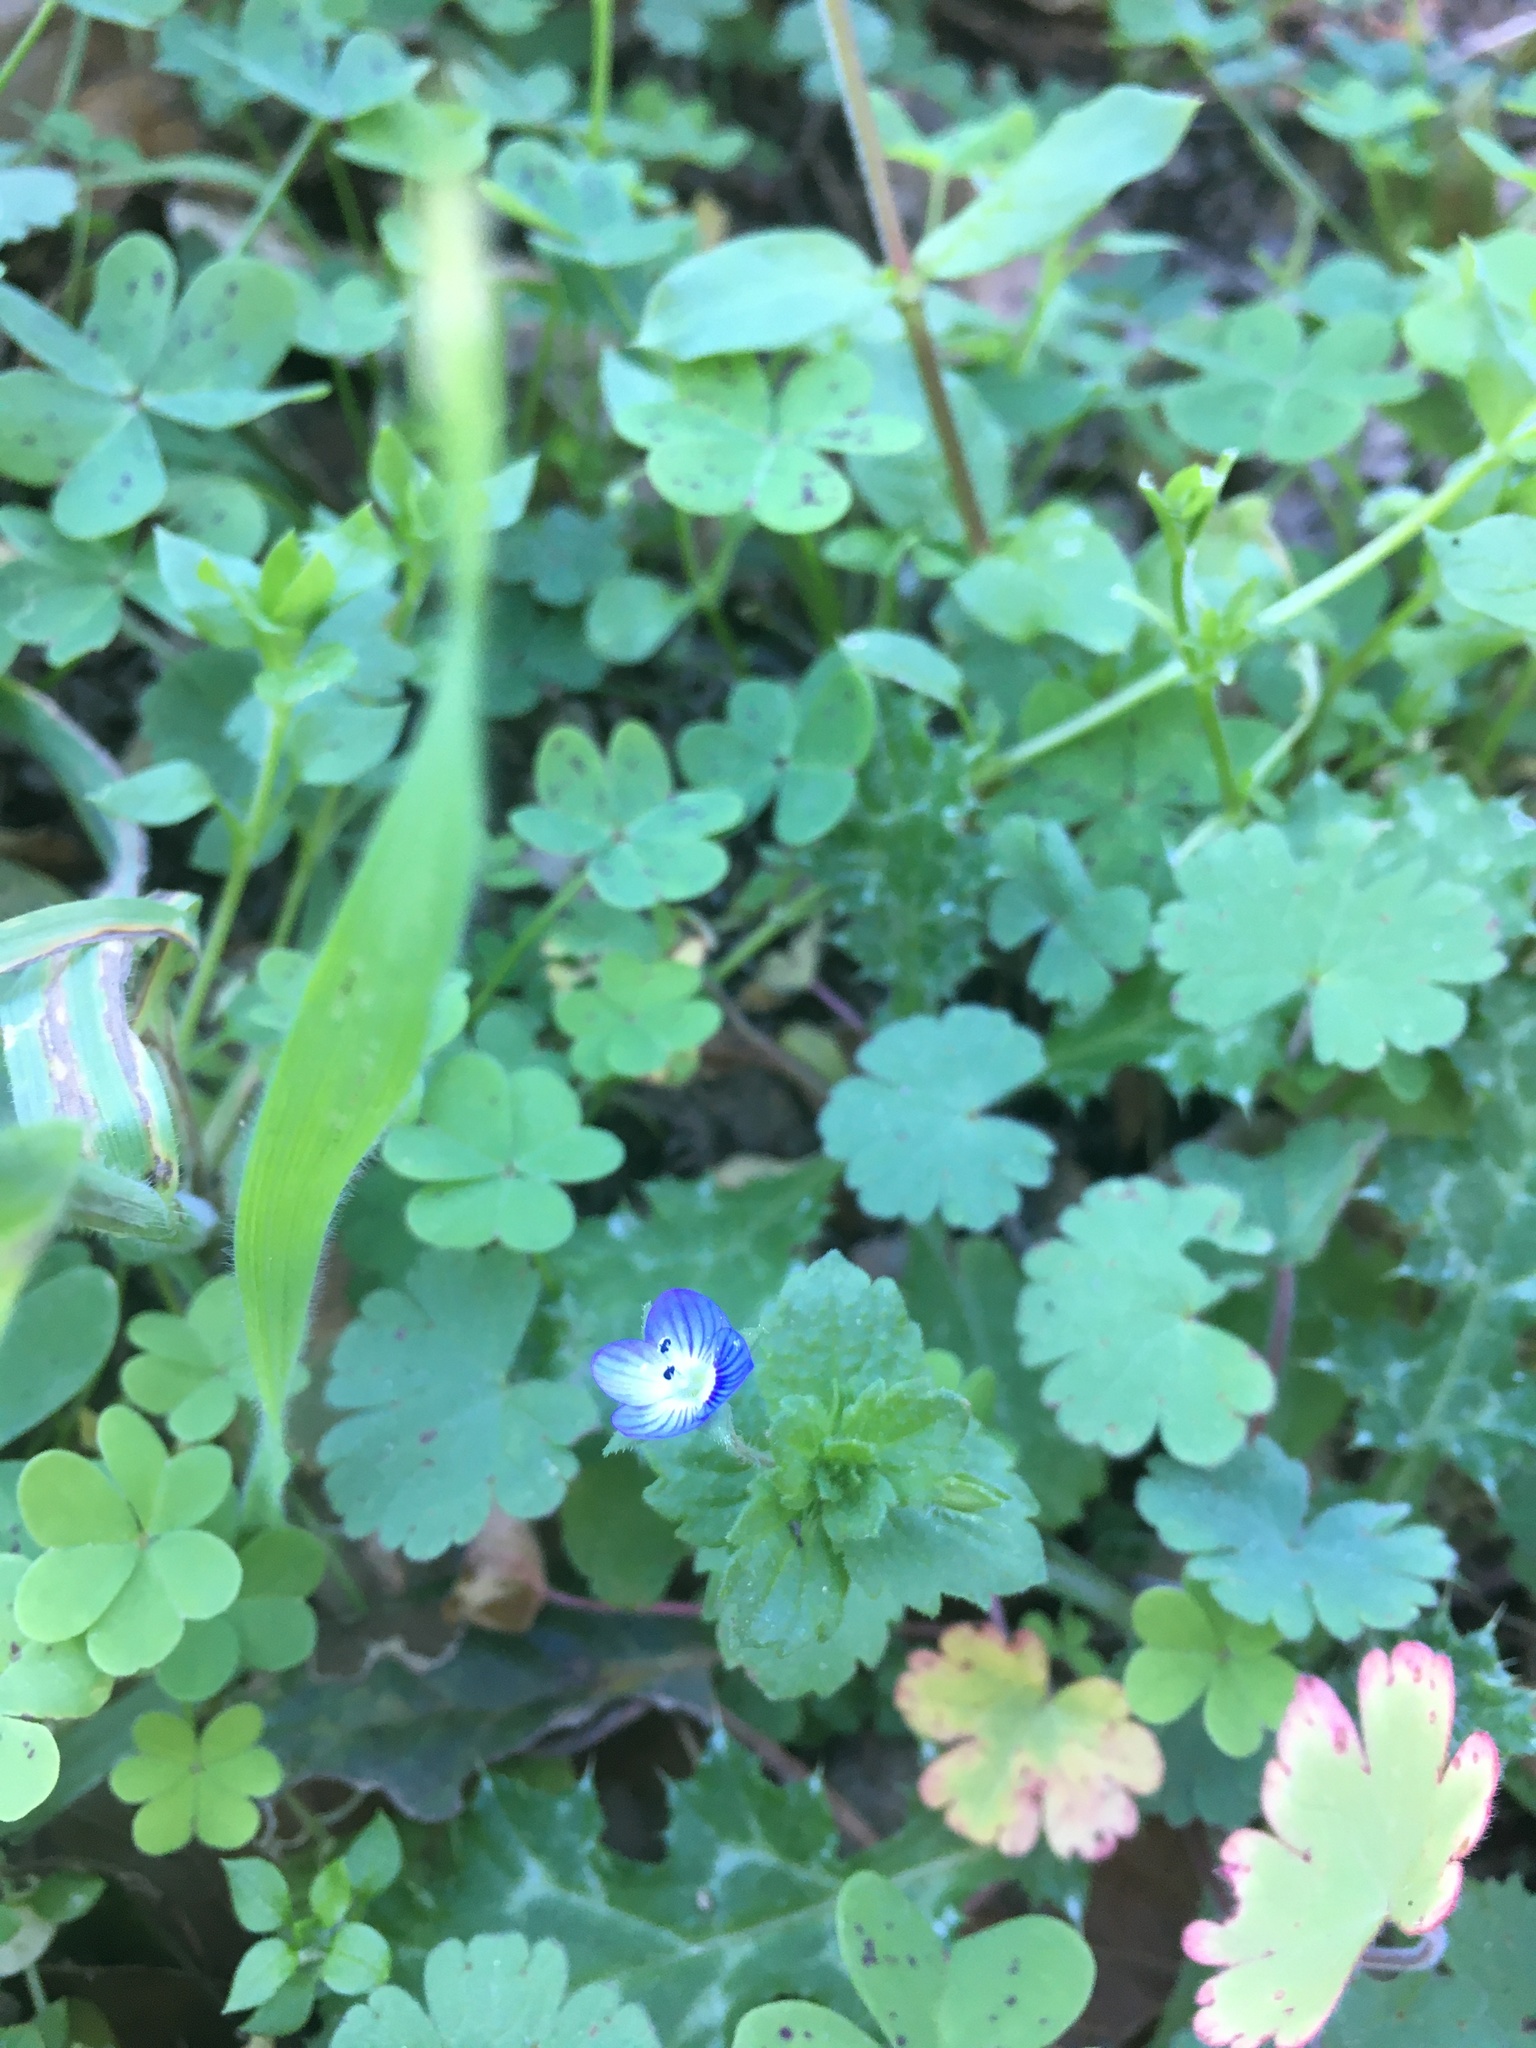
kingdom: Plantae
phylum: Tracheophyta
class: Magnoliopsida
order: Lamiales
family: Plantaginaceae
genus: Veronica
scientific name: Veronica persica
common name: Common field-speedwell
